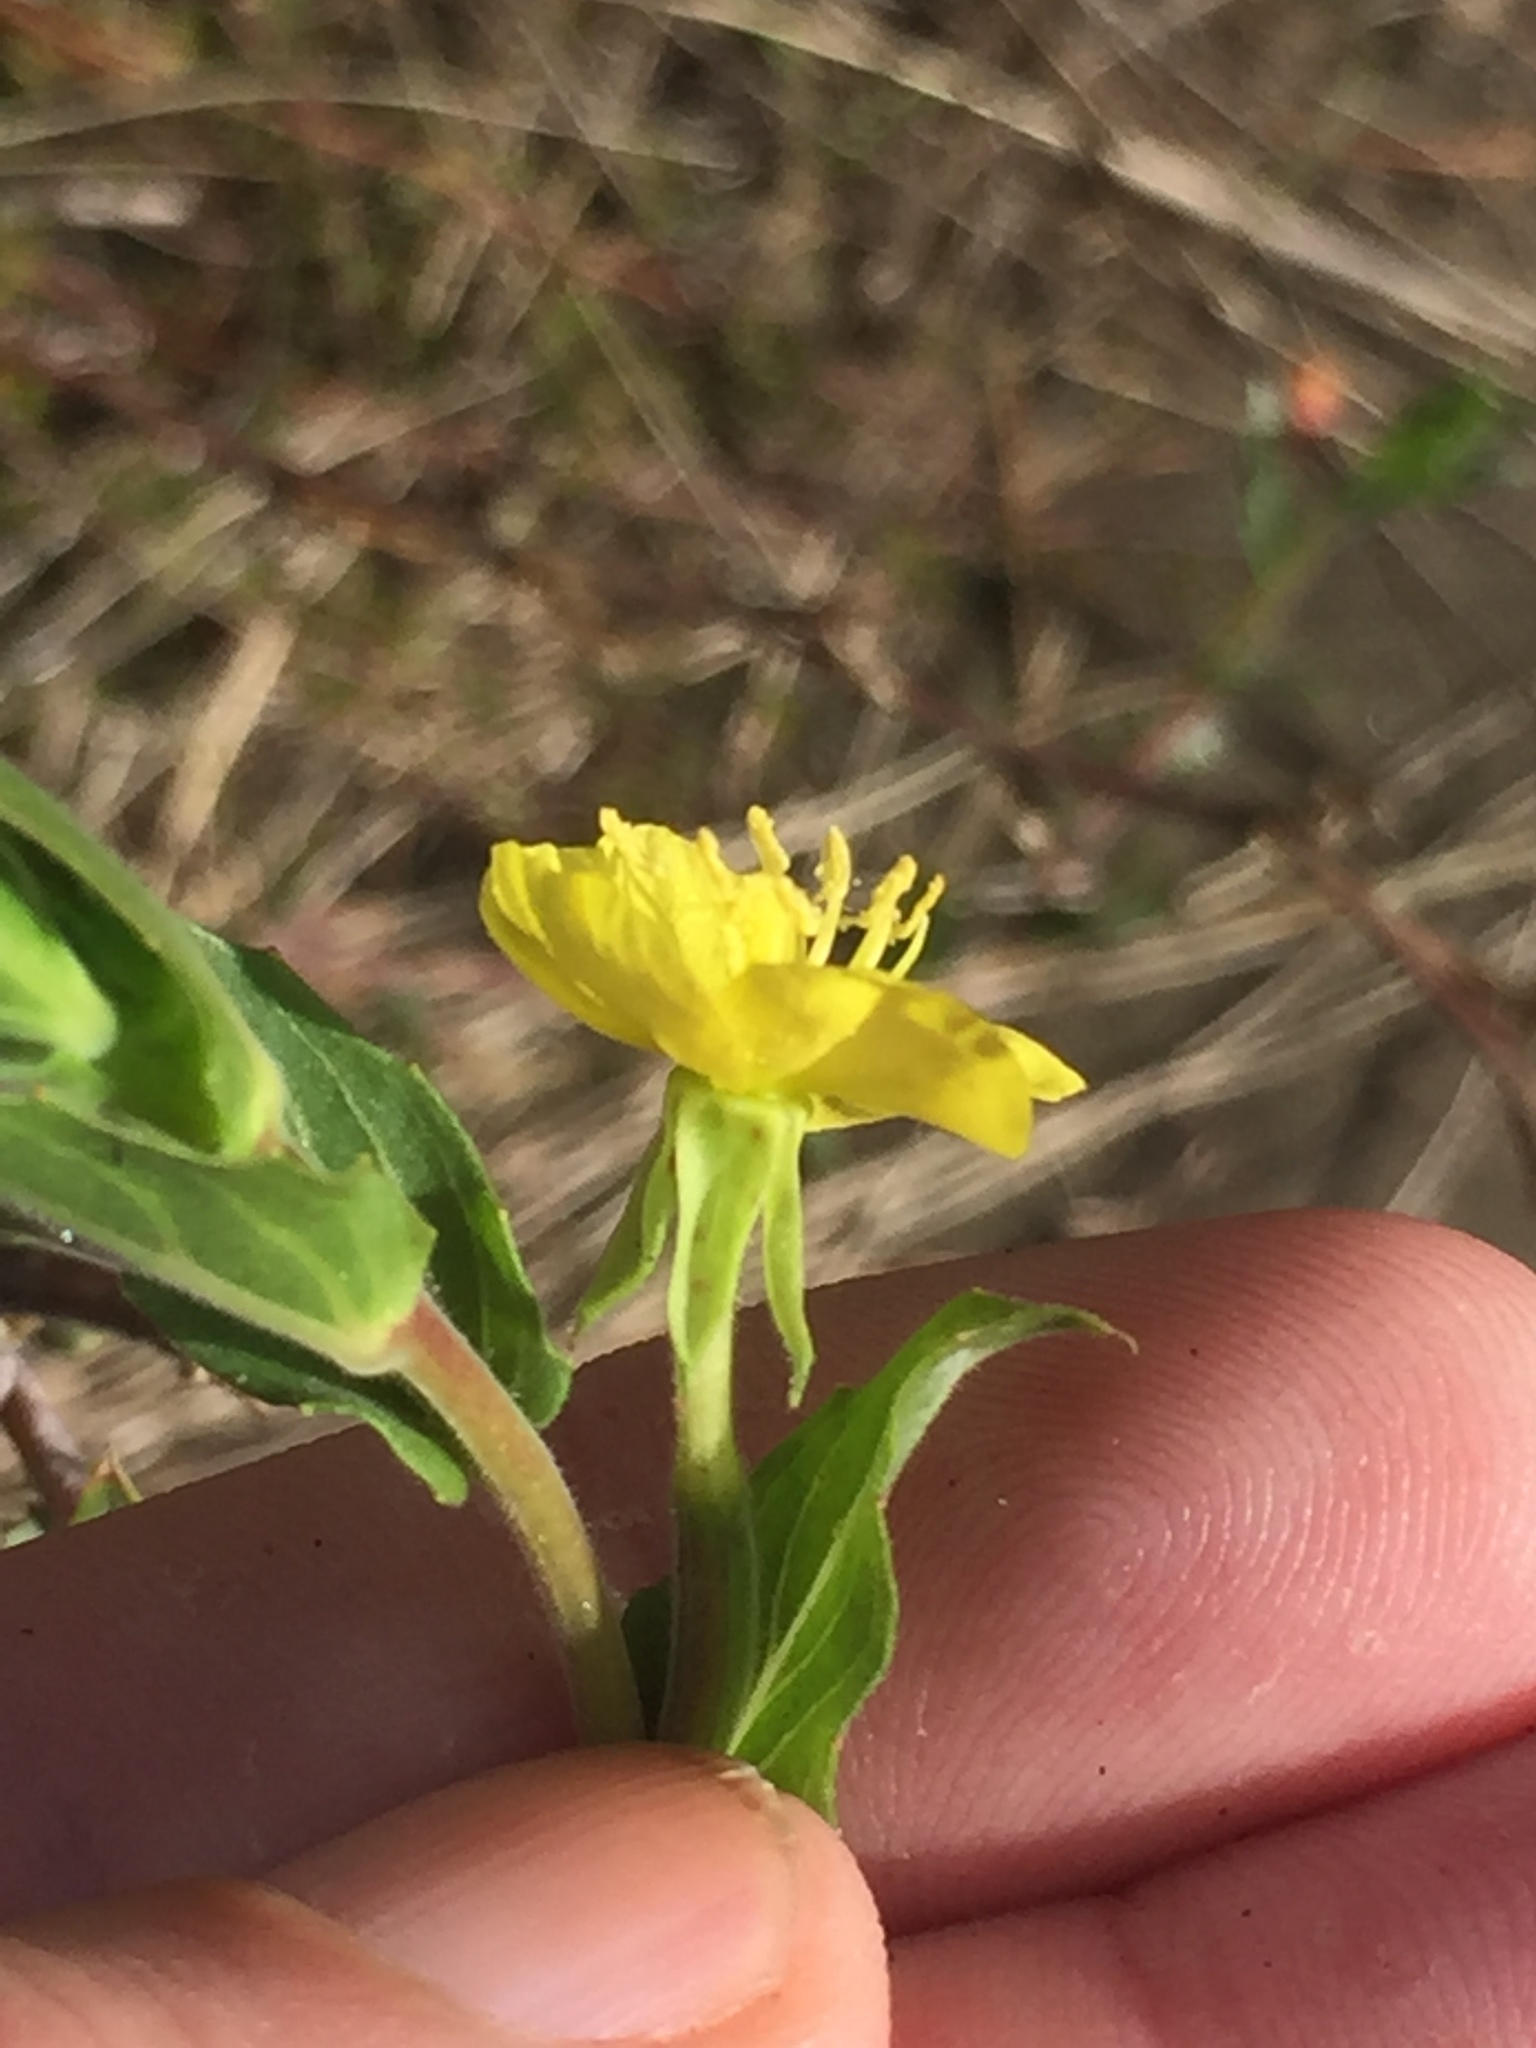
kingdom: Plantae
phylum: Tracheophyta
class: Magnoliopsida
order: Myrtales
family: Onagraceae
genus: Oenothera
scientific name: Oenothera stricta
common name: Fragrant evening-primrose
